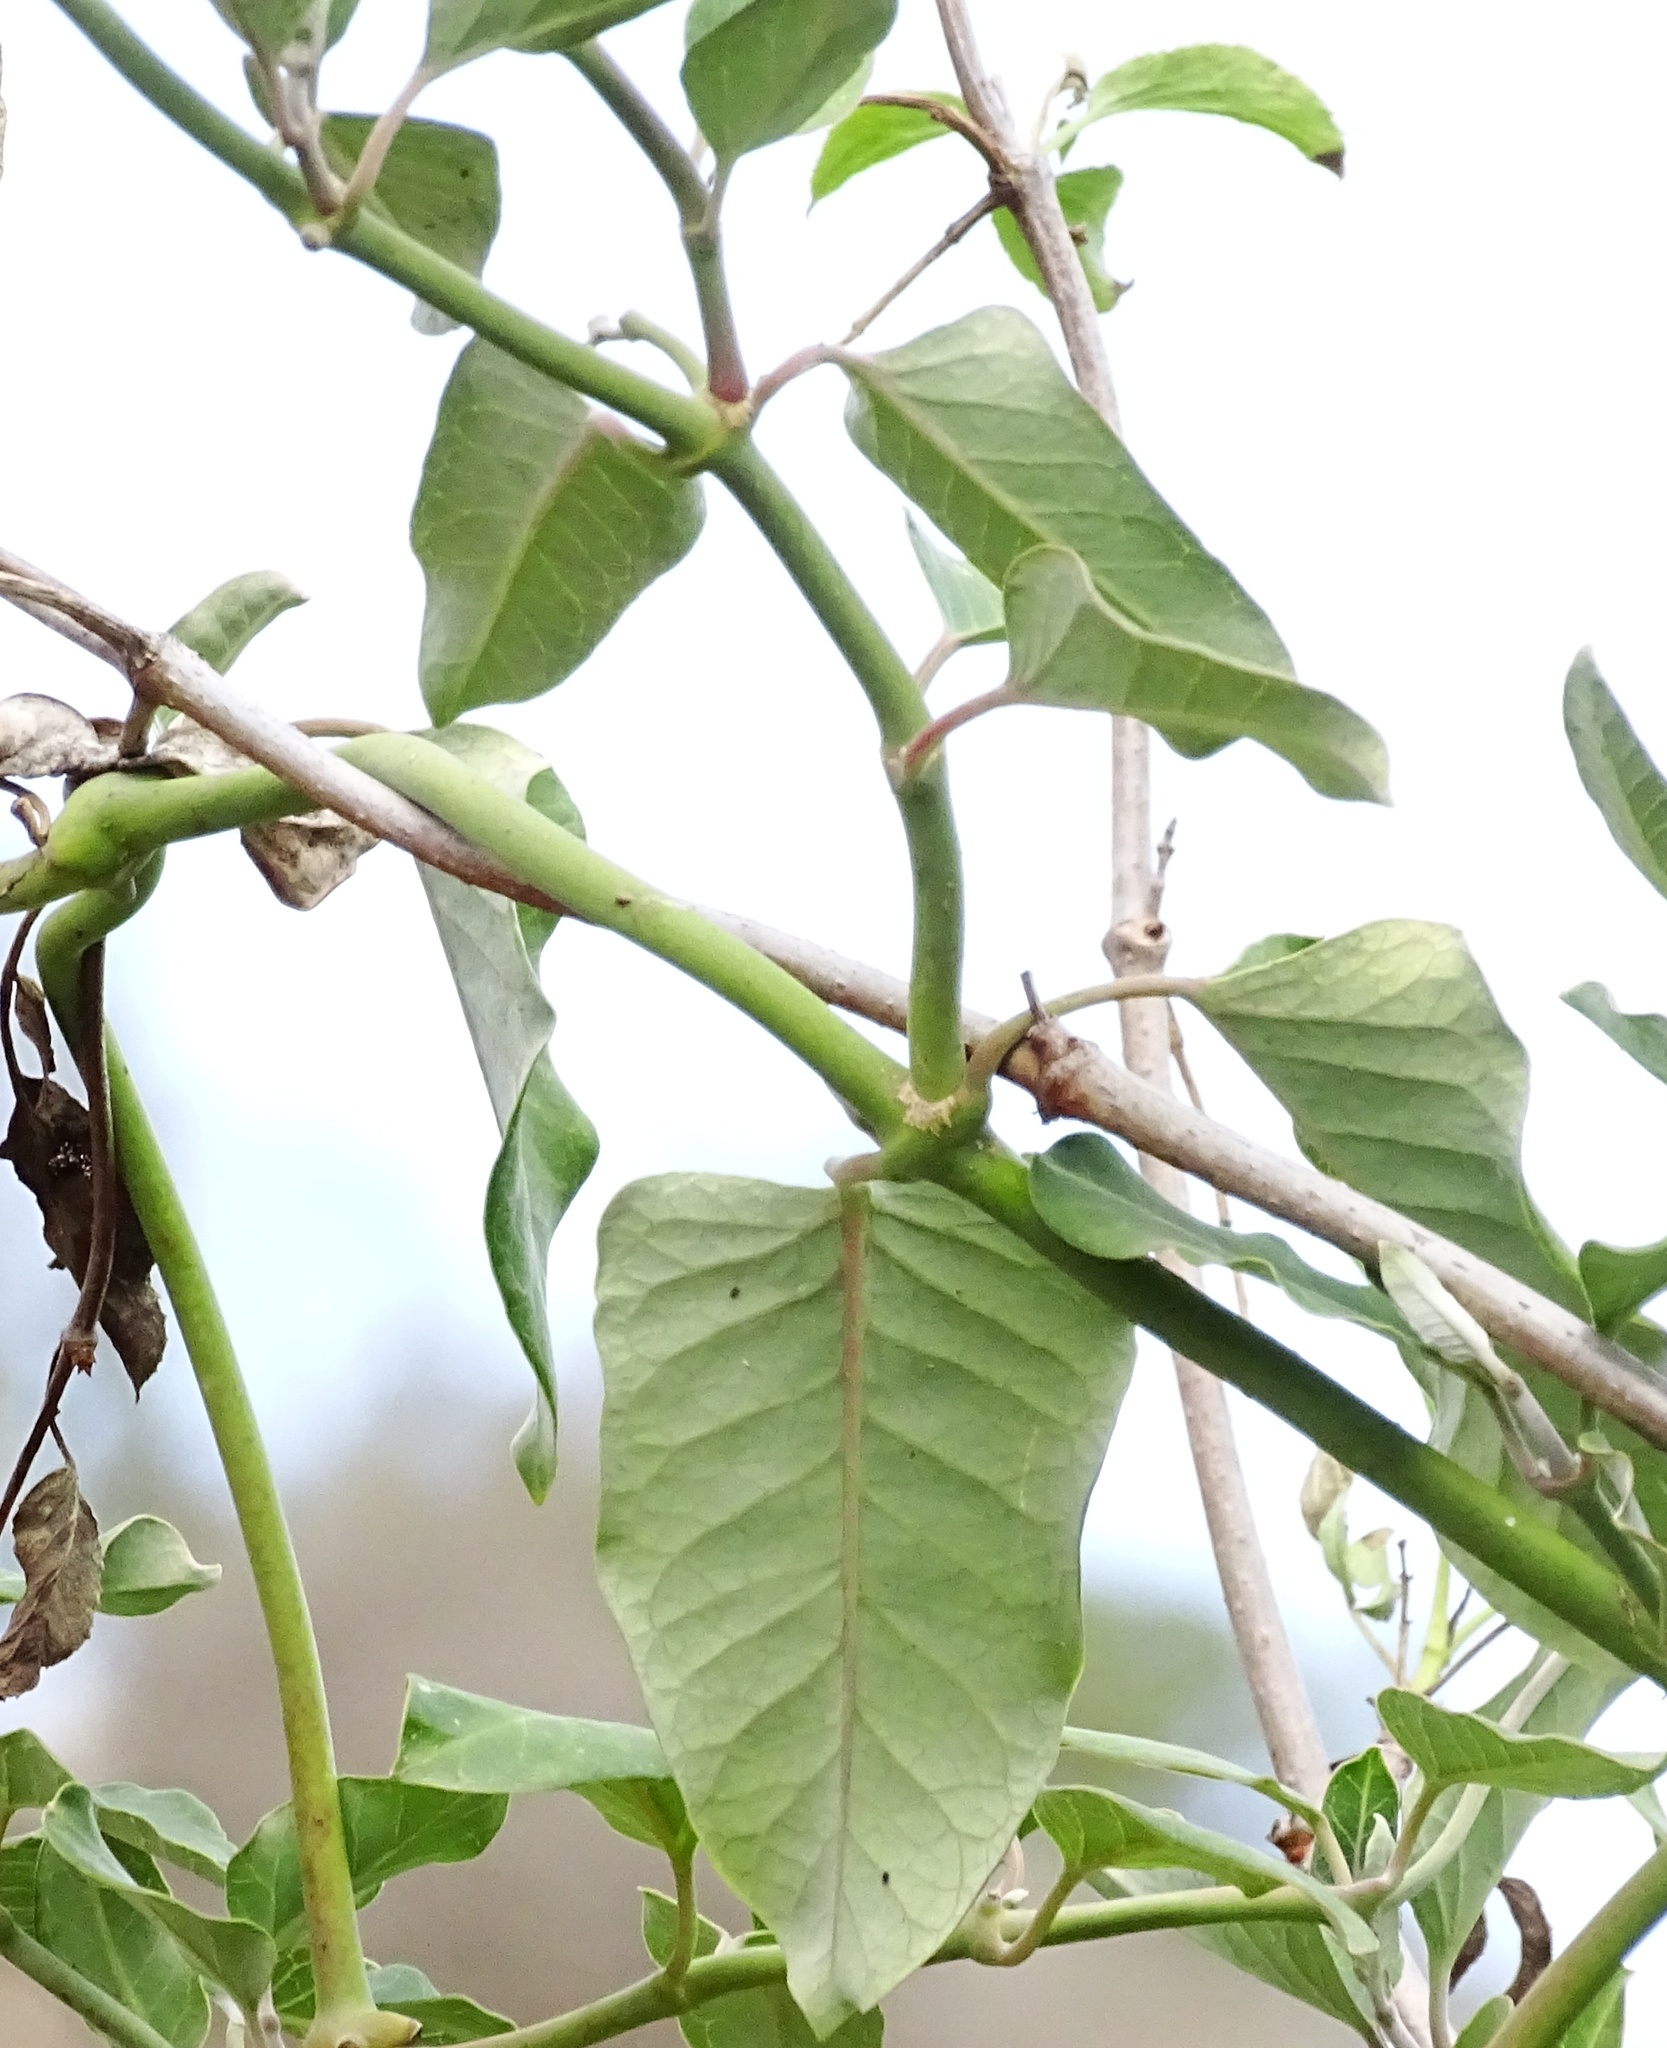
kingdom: Plantae
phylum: Tracheophyta
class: Magnoliopsida
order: Gentianales
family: Apocynaceae
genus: Araujia
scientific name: Araujia sericifera
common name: White bladderflower
